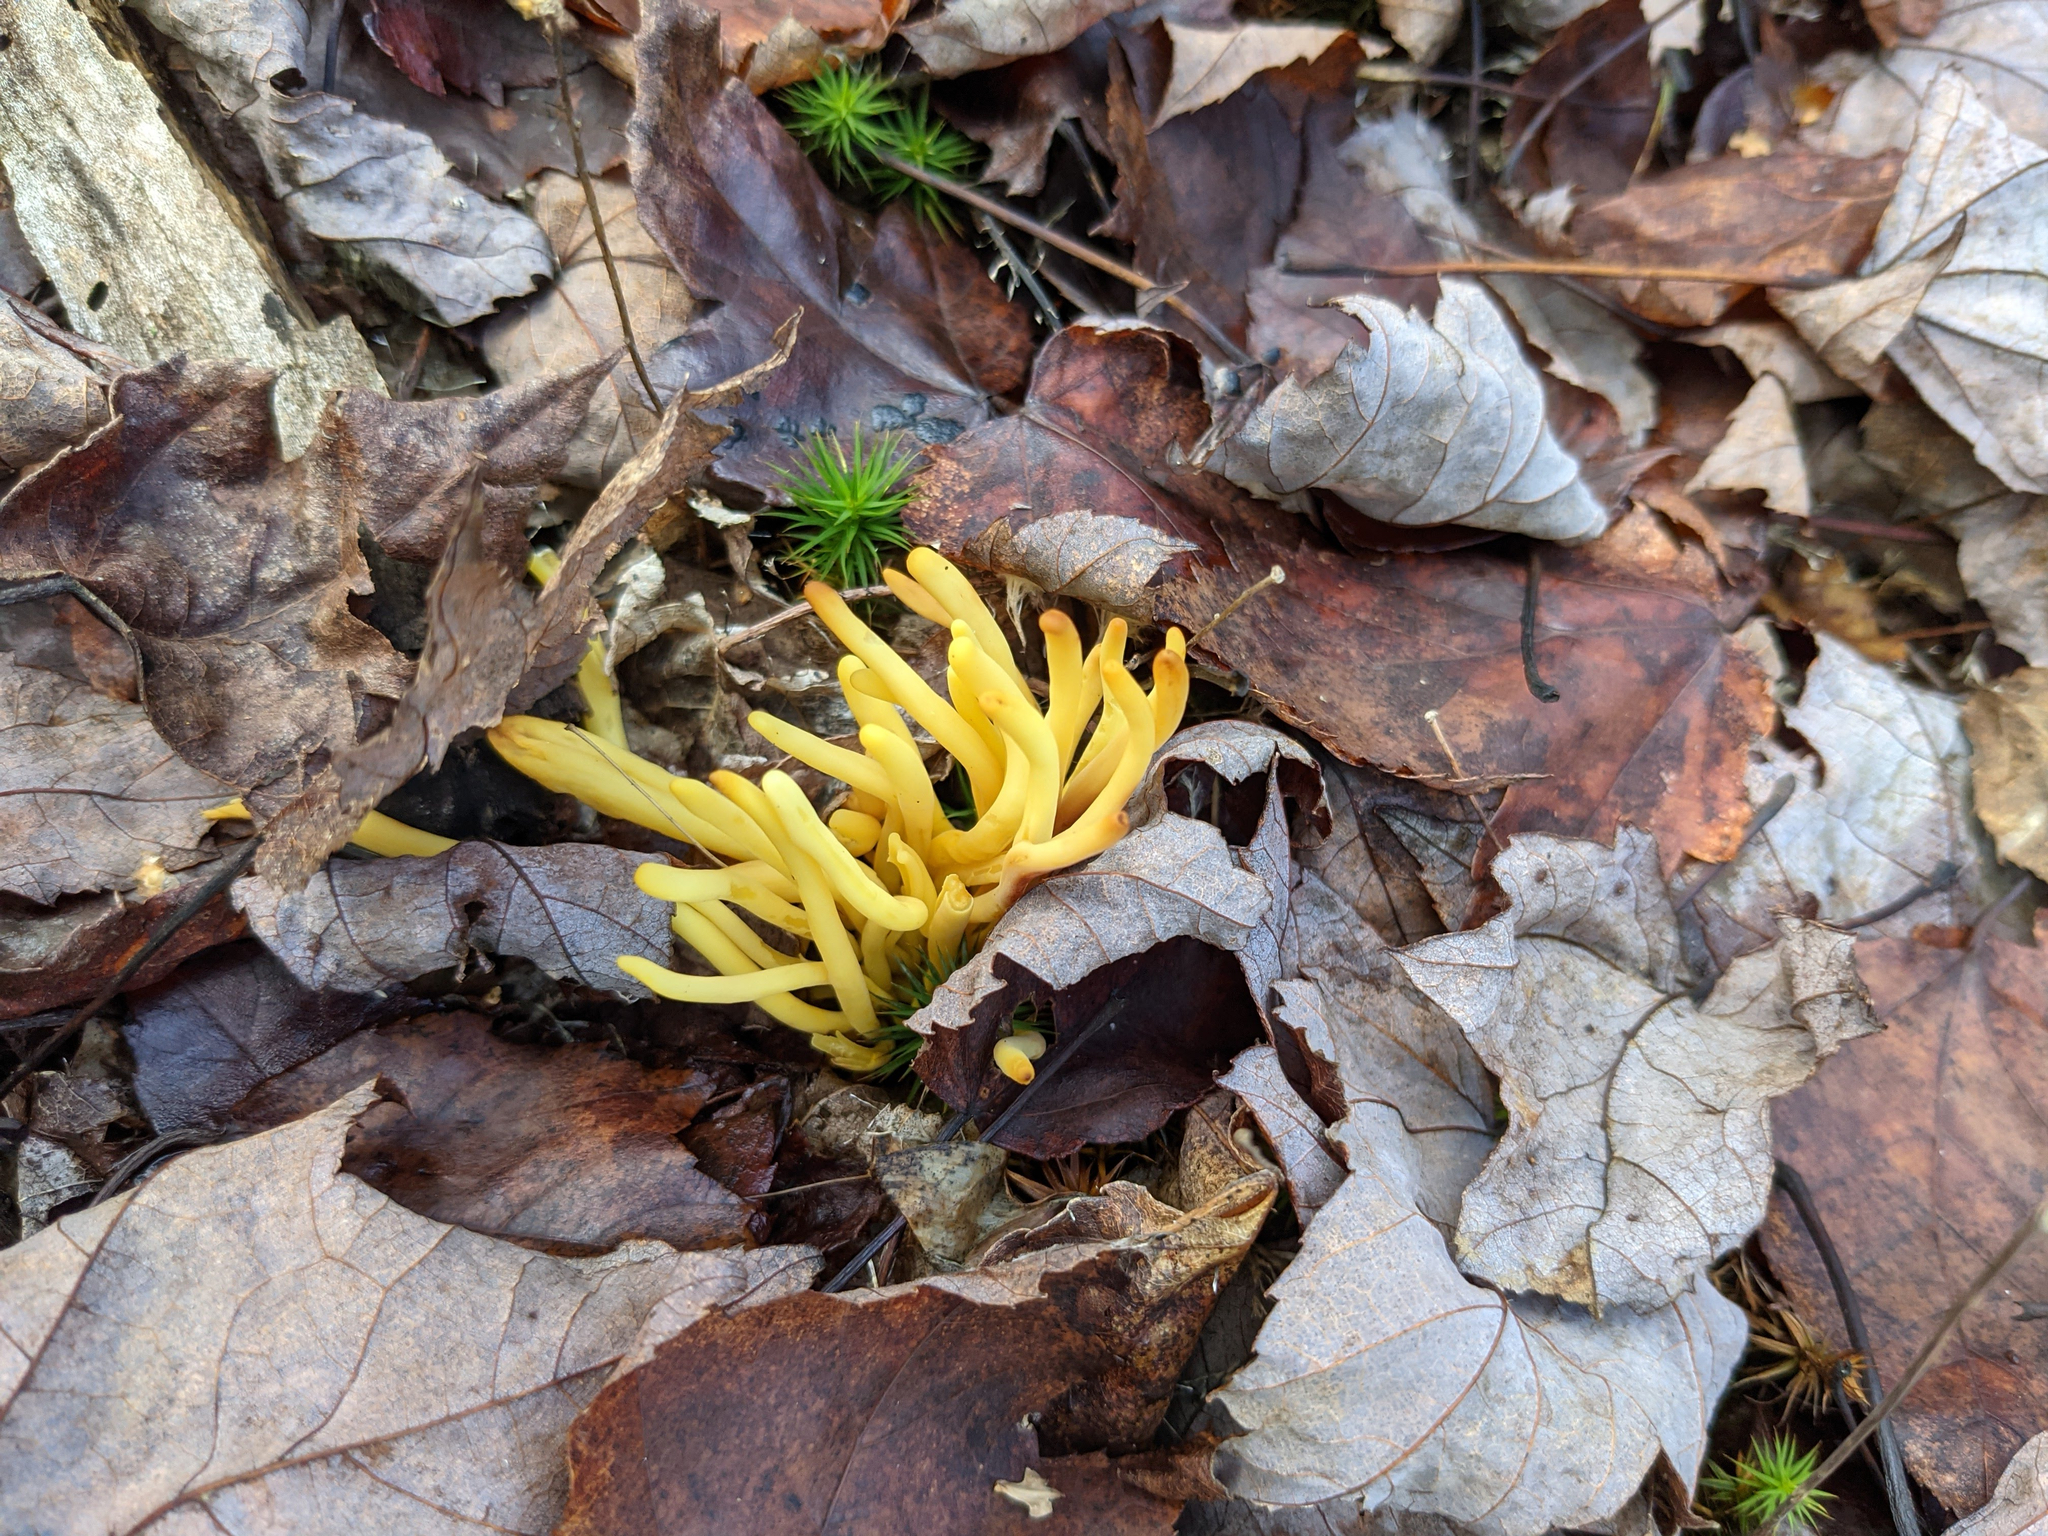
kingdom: Fungi
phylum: Basidiomycota
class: Agaricomycetes
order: Agaricales
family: Clavariaceae
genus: Clavulinopsis
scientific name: Clavulinopsis fusiformis
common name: Golden spindles
